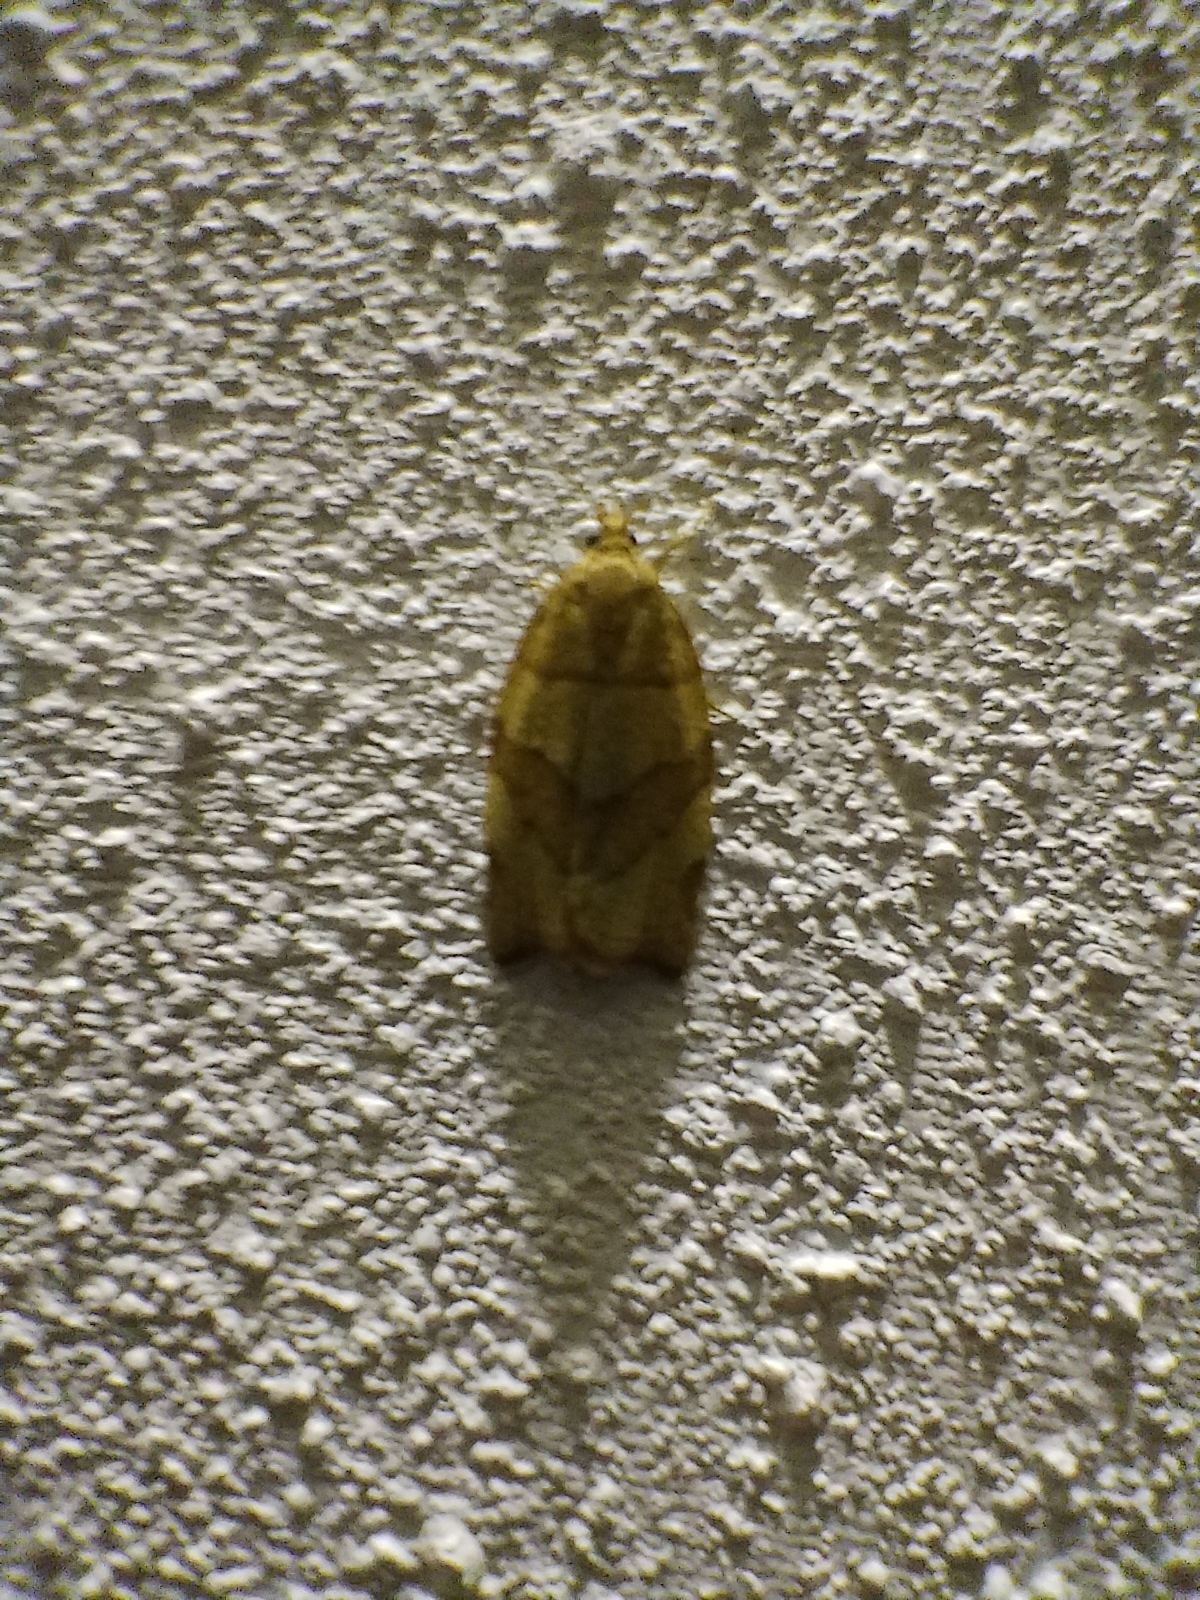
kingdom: Animalia
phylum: Arthropoda
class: Insecta
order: Lepidoptera
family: Tortricidae
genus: Pandemis
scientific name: Pandemis cerasana
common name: Barred fruit-tree tortrix
